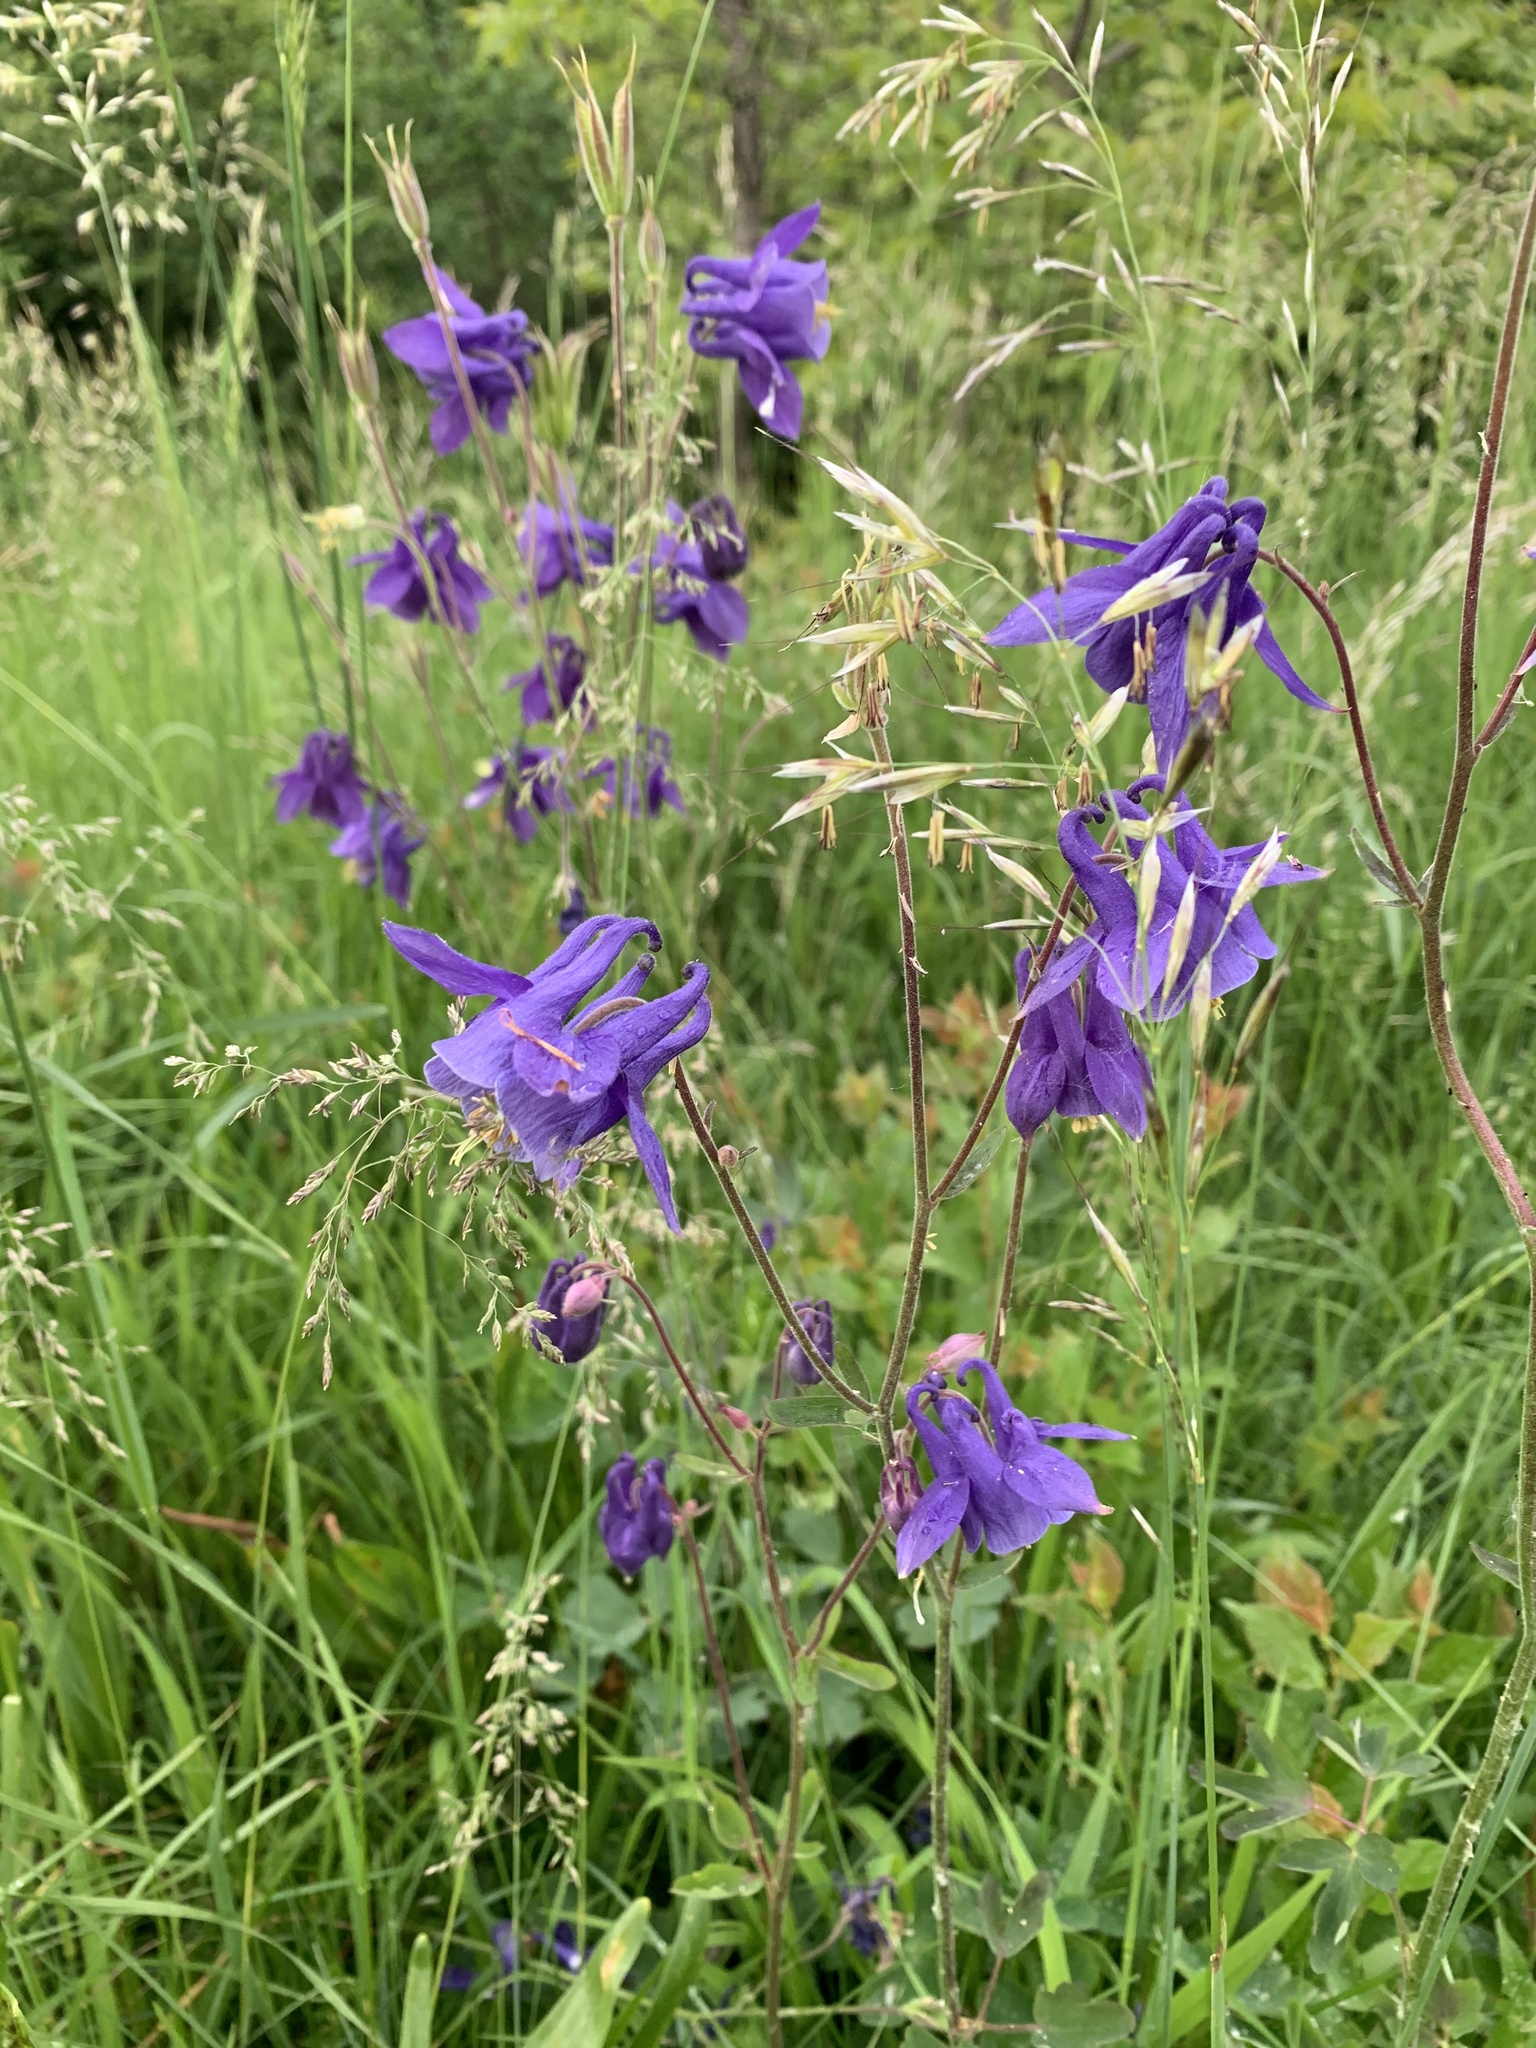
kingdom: Plantae
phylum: Tracheophyta
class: Magnoliopsida
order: Ranunculales
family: Ranunculaceae
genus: Aquilegia
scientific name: Aquilegia vulgaris
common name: Columbine
